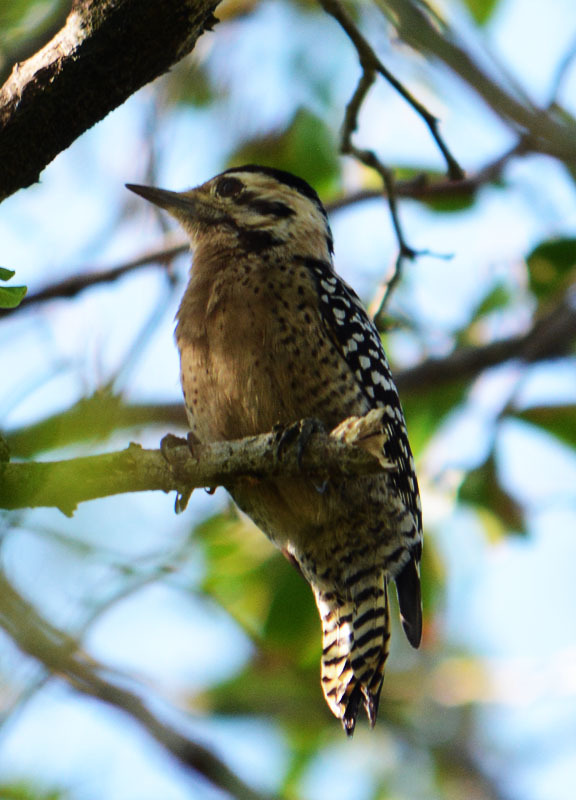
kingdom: Animalia
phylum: Chordata
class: Aves
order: Piciformes
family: Picidae
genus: Dryobates
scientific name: Dryobates scalaris
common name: Ladder-backed woodpecker
